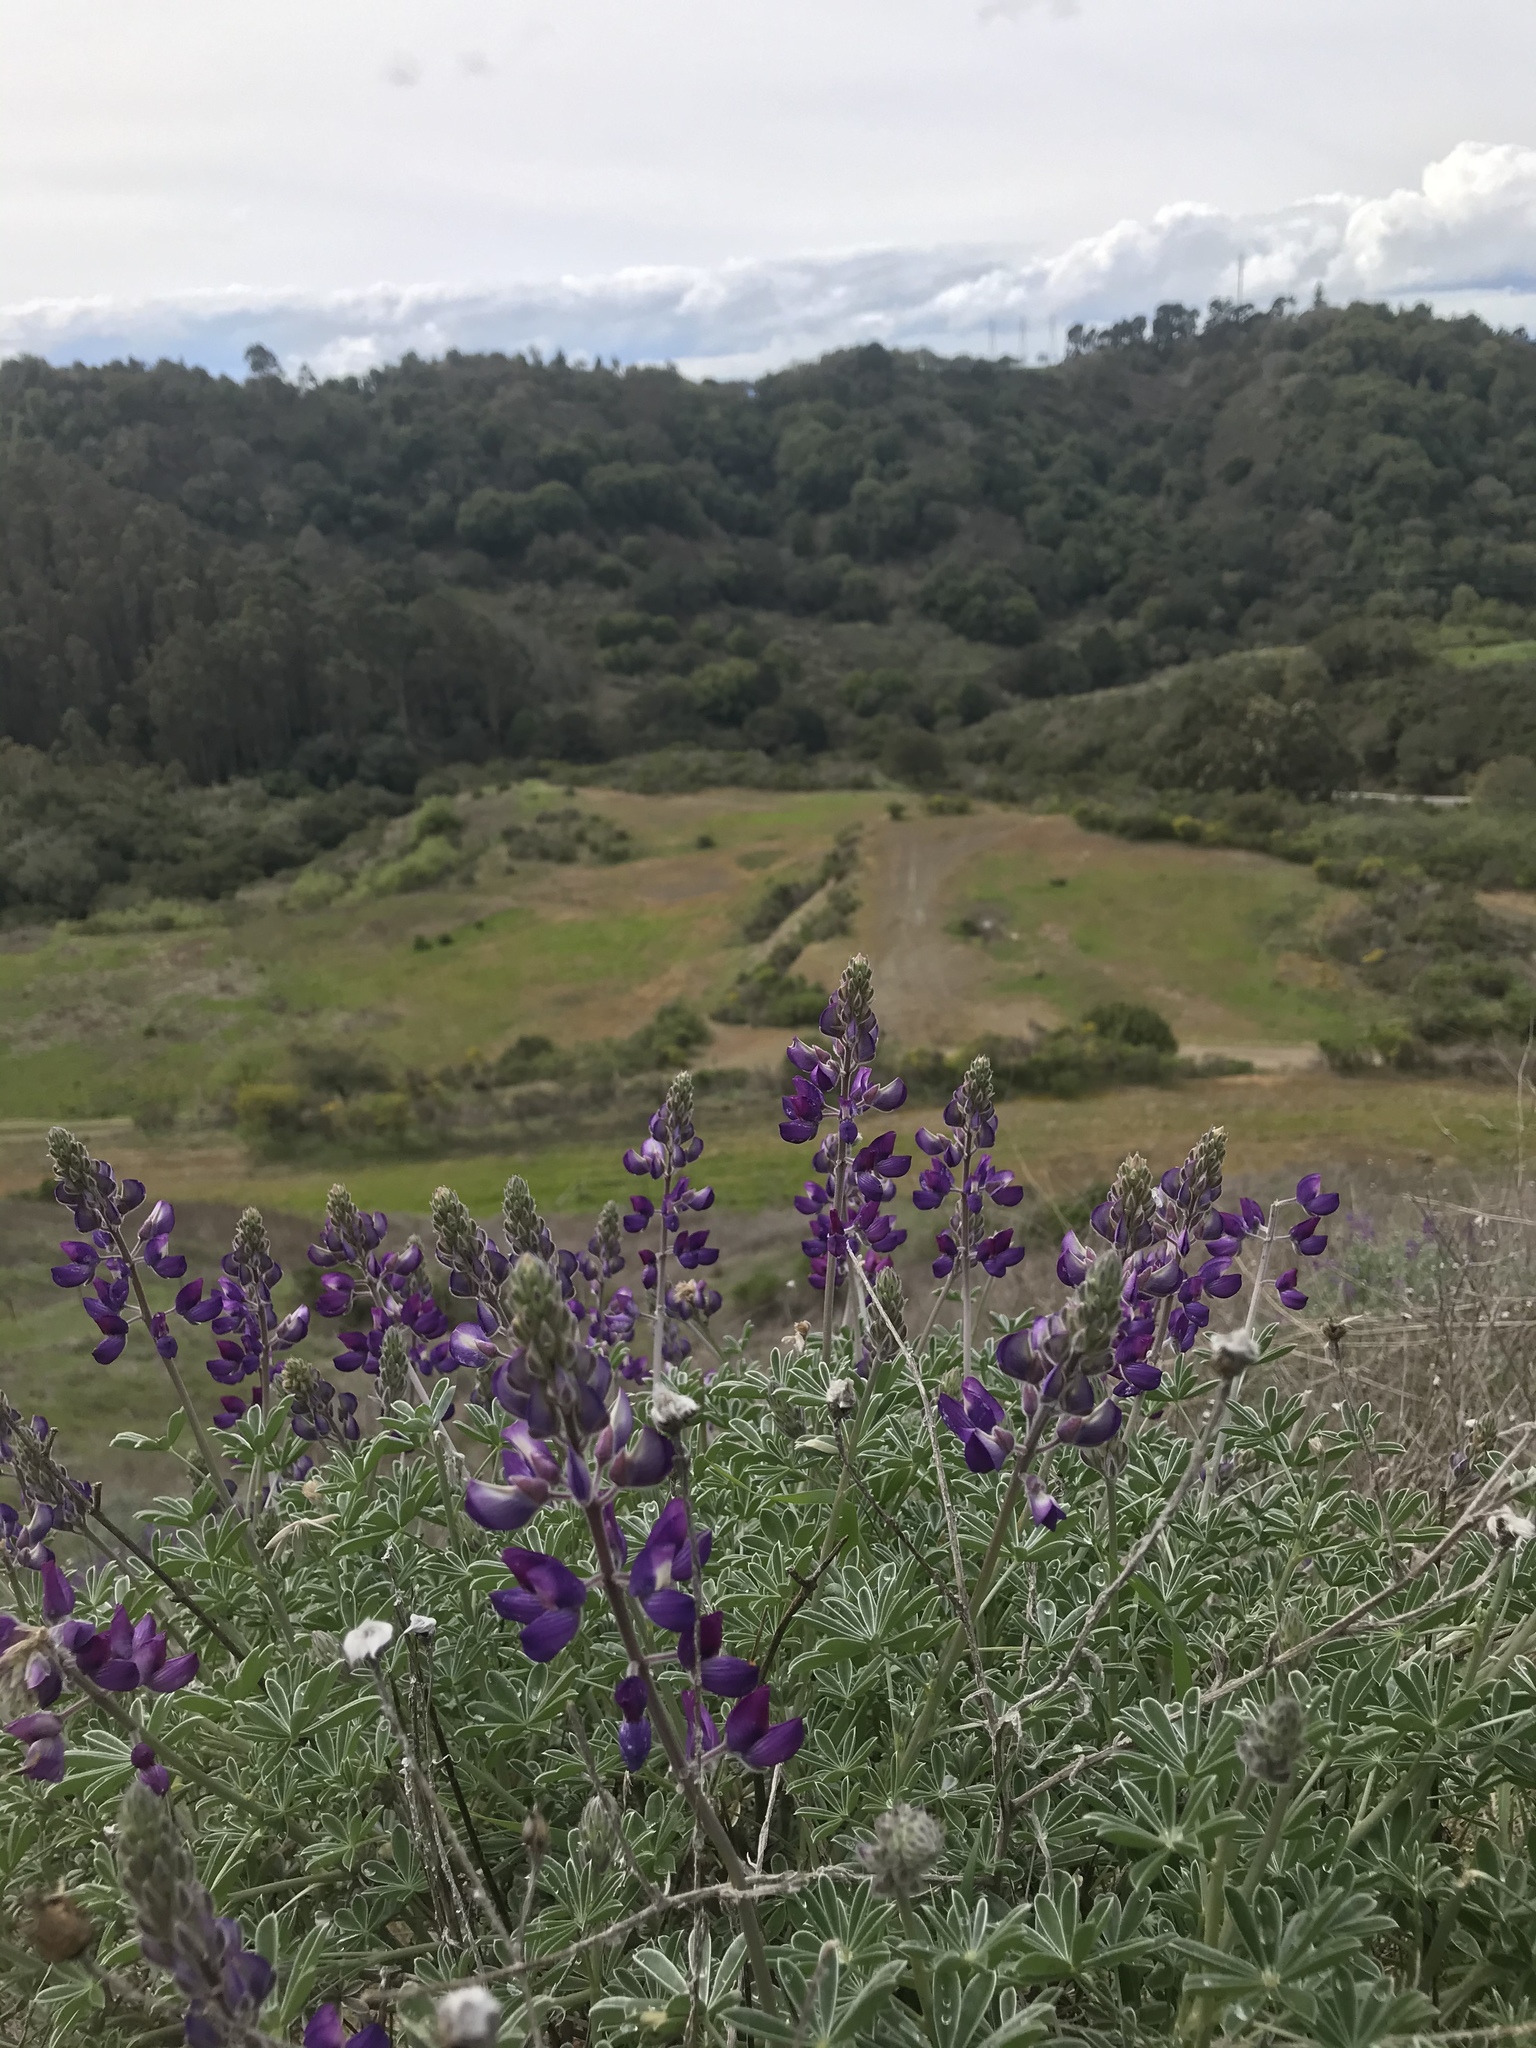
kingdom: Plantae
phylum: Tracheophyta
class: Magnoliopsida
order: Fabales
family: Fabaceae
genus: Lupinus
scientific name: Lupinus albifrons
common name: Foothill lupine
